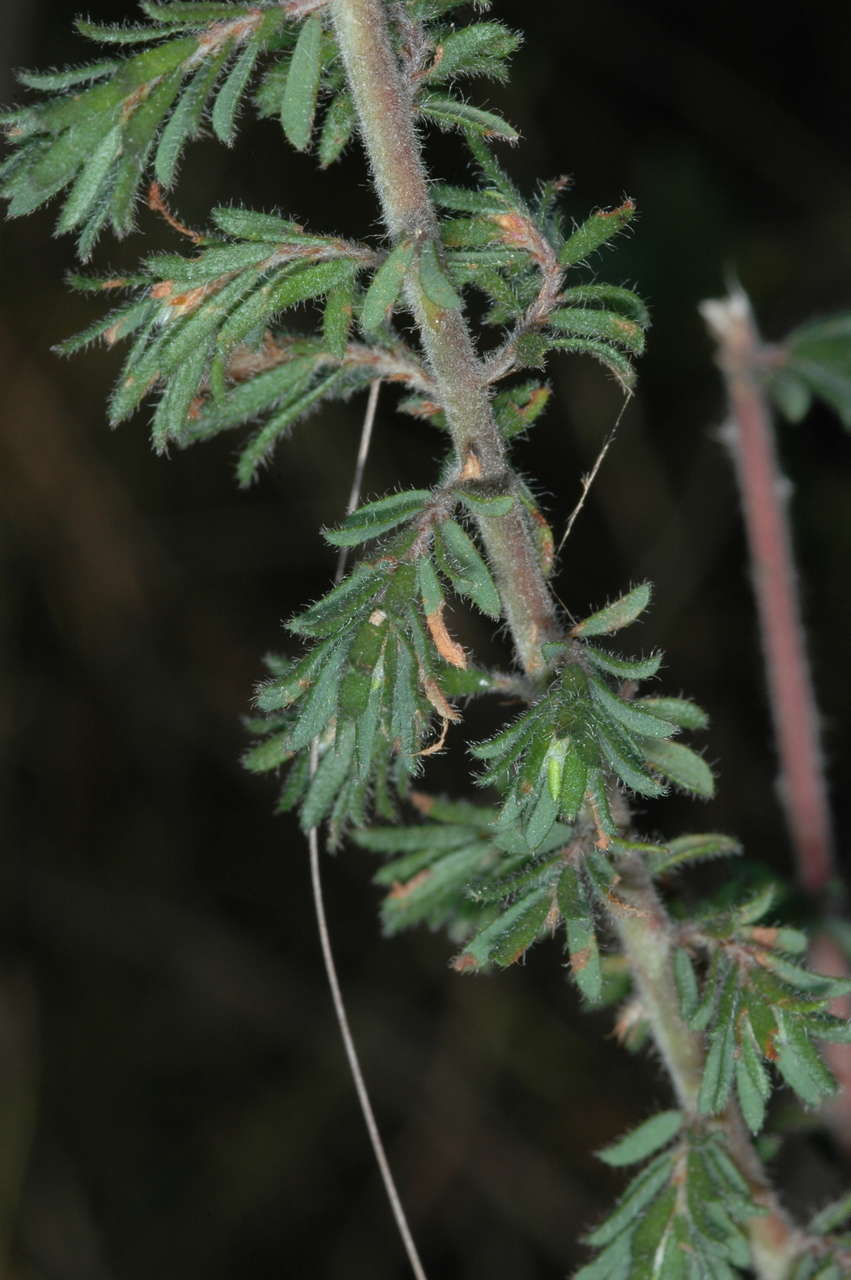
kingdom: Plantae
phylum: Tracheophyta
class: Magnoliopsida
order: Fabales
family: Fabaceae
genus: Pultenaea
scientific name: Pultenaea hispidula
